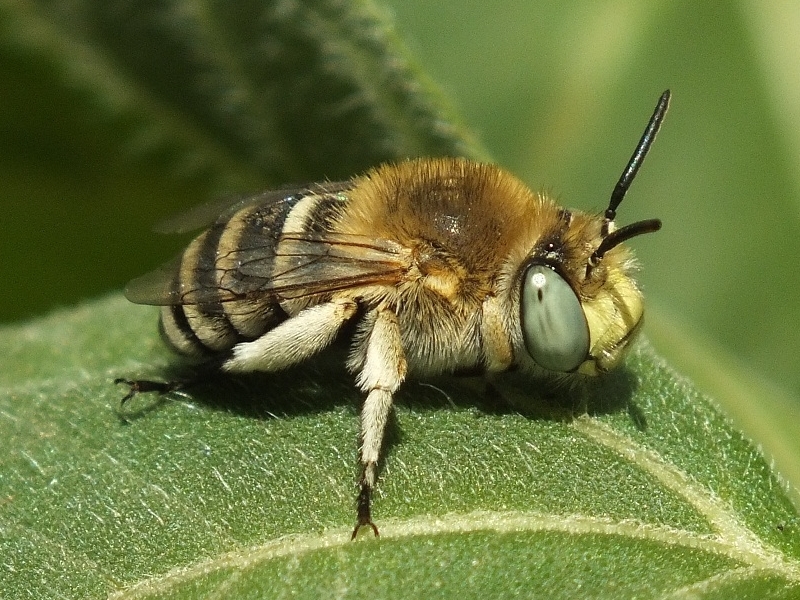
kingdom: Animalia
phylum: Arthropoda
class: Insecta
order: Hymenoptera
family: Apidae
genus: Amegilla
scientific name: Amegilla savignyi
